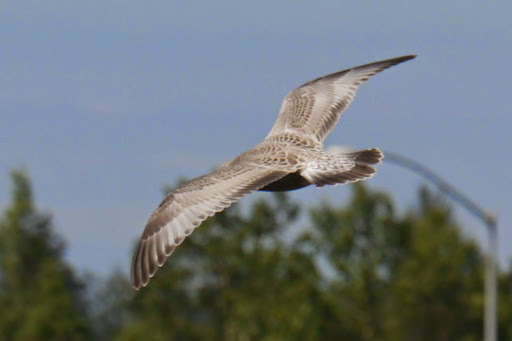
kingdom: Animalia
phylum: Chordata
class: Aves
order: Charadriiformes
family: Laridae
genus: Larus
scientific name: Larus brachyrhynchus
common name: Short-billed gull
